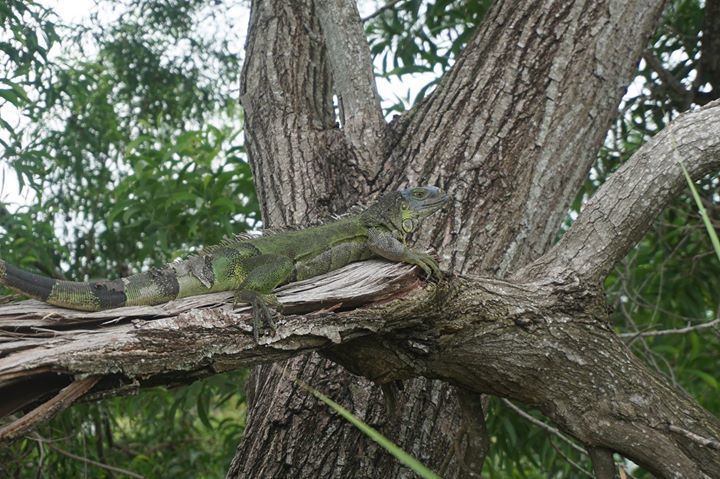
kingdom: Animalia
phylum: Chordata
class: Squamata
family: Iguanidae
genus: Iguana
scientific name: Iguana iguana
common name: Green iguana
